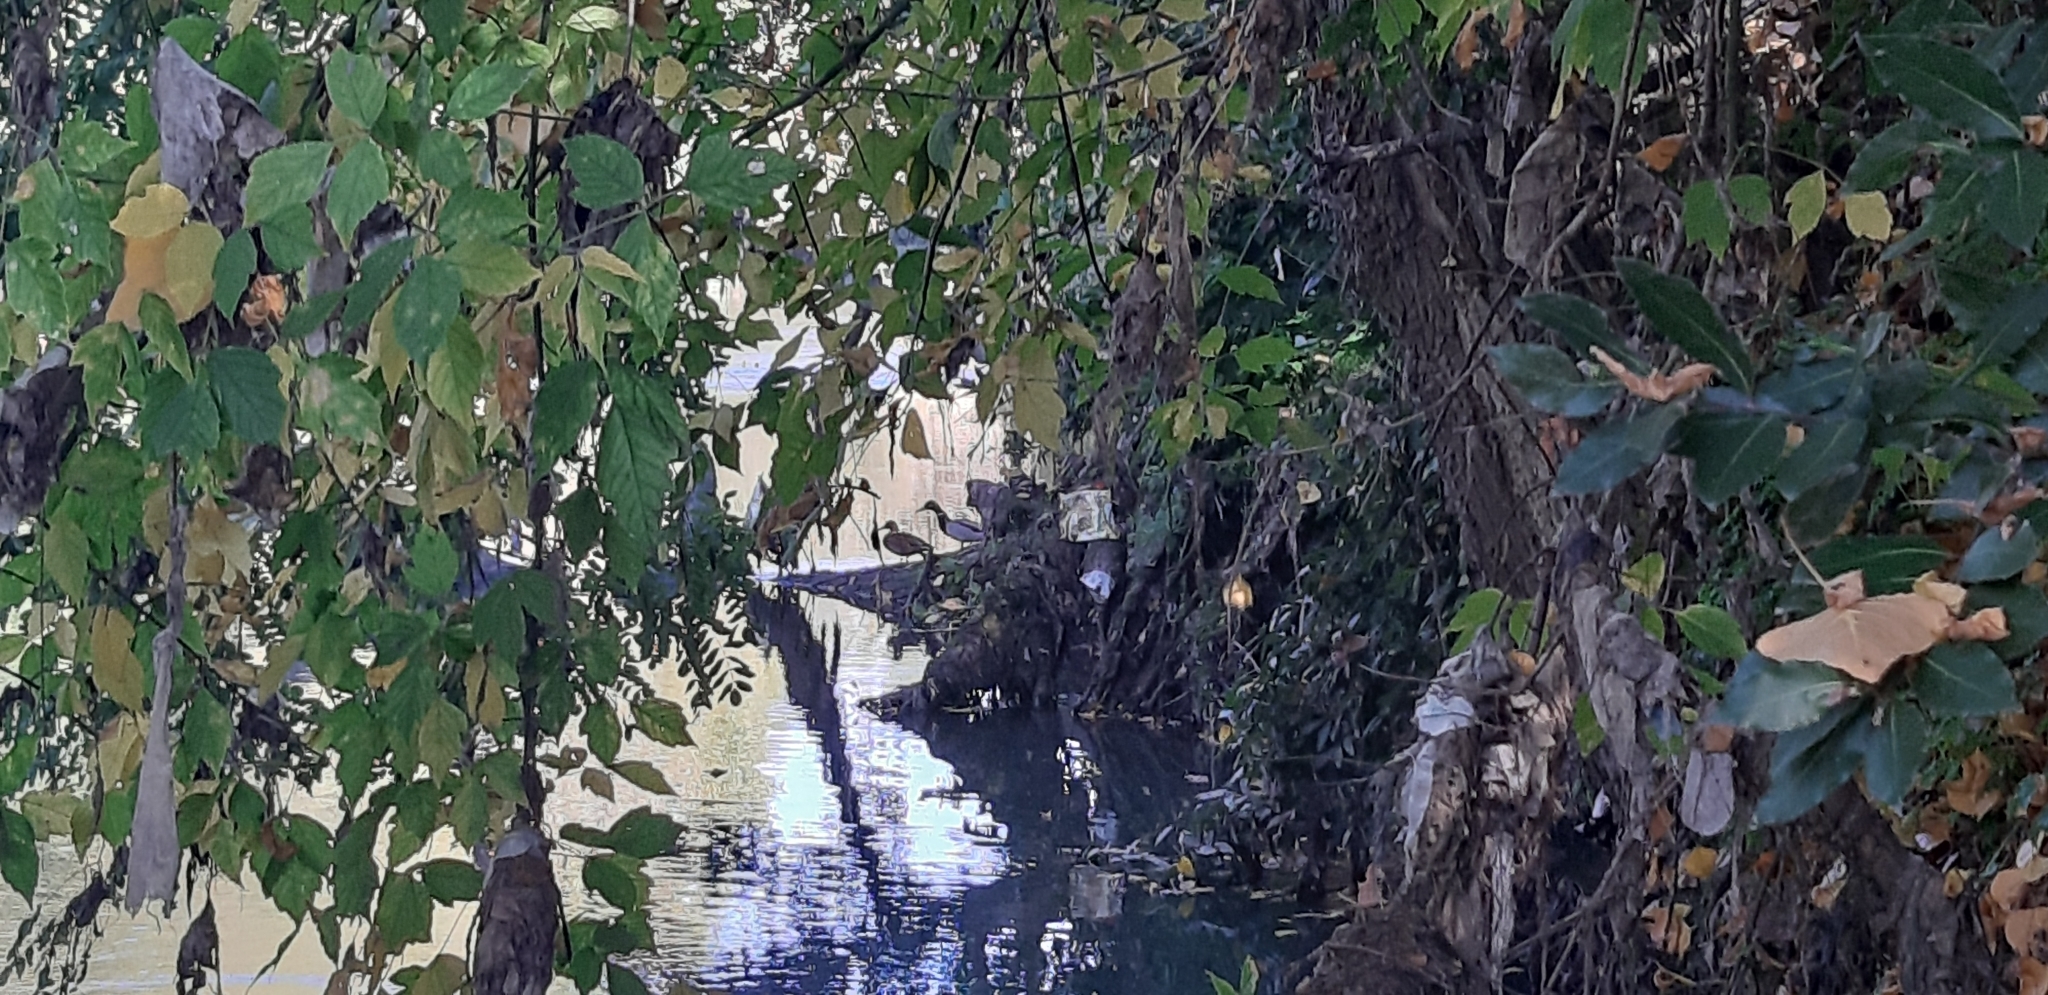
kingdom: Animalia
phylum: Chordata
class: Aves
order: Anseriformes
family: Anatidae
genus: Anas
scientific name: Anas platyrhynchos
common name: Mallard
